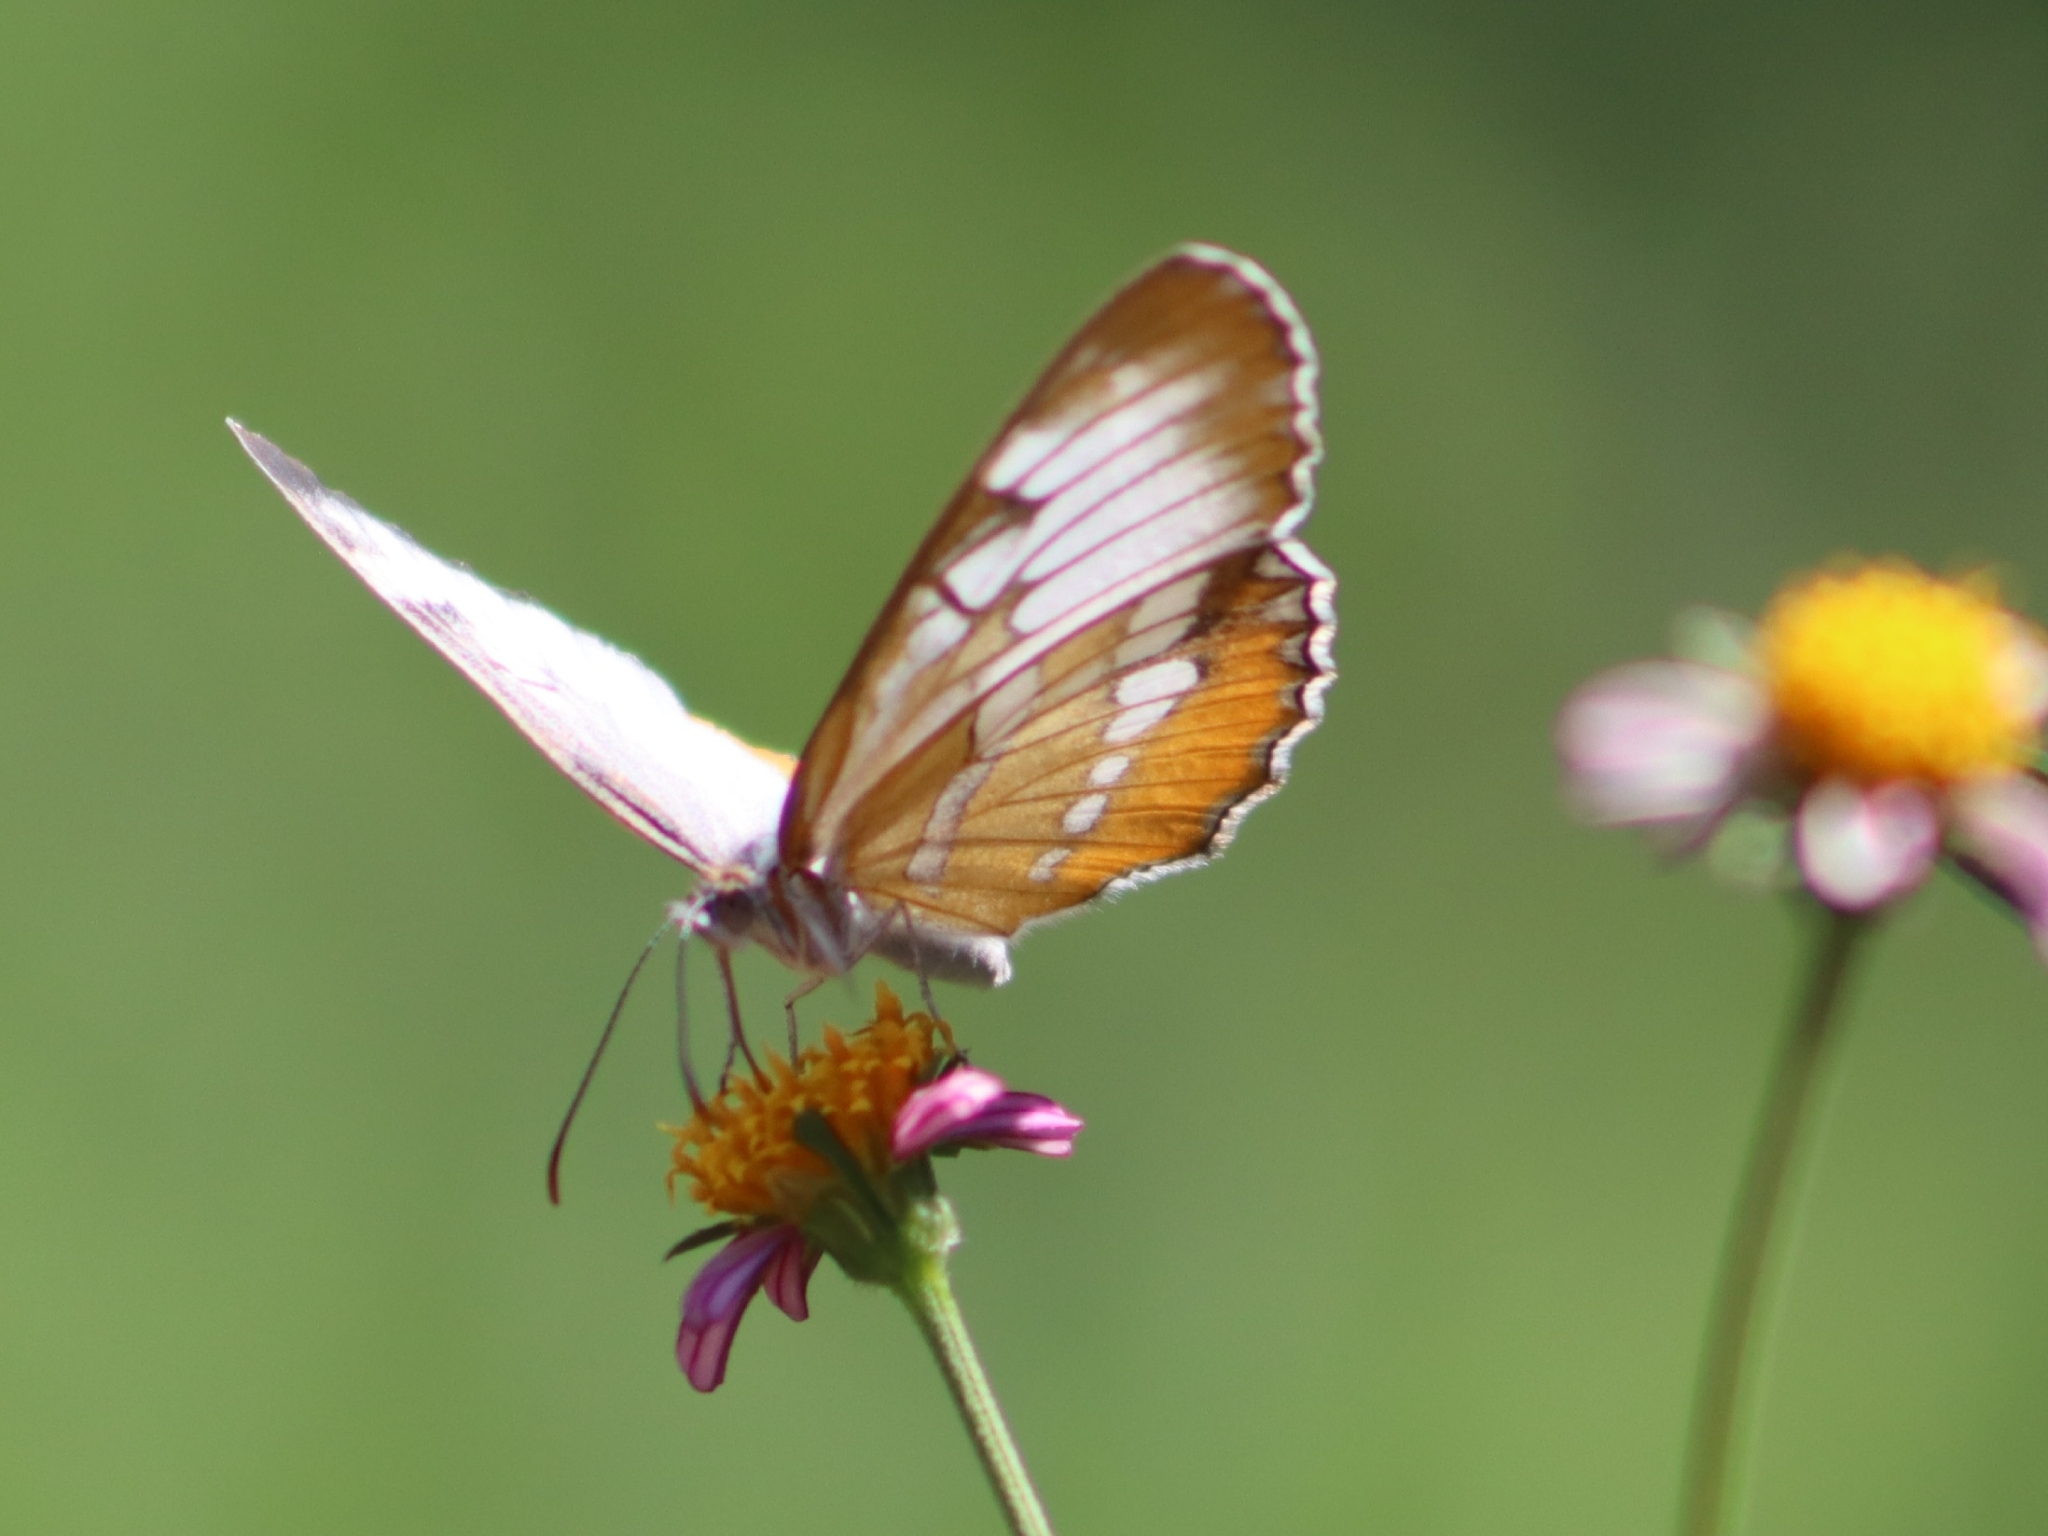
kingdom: Animalia
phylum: Arthropoda
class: Insecta
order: Lepidoptera
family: Nymphalidae
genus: Mestra
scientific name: Mestra amymone
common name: Common mestra
